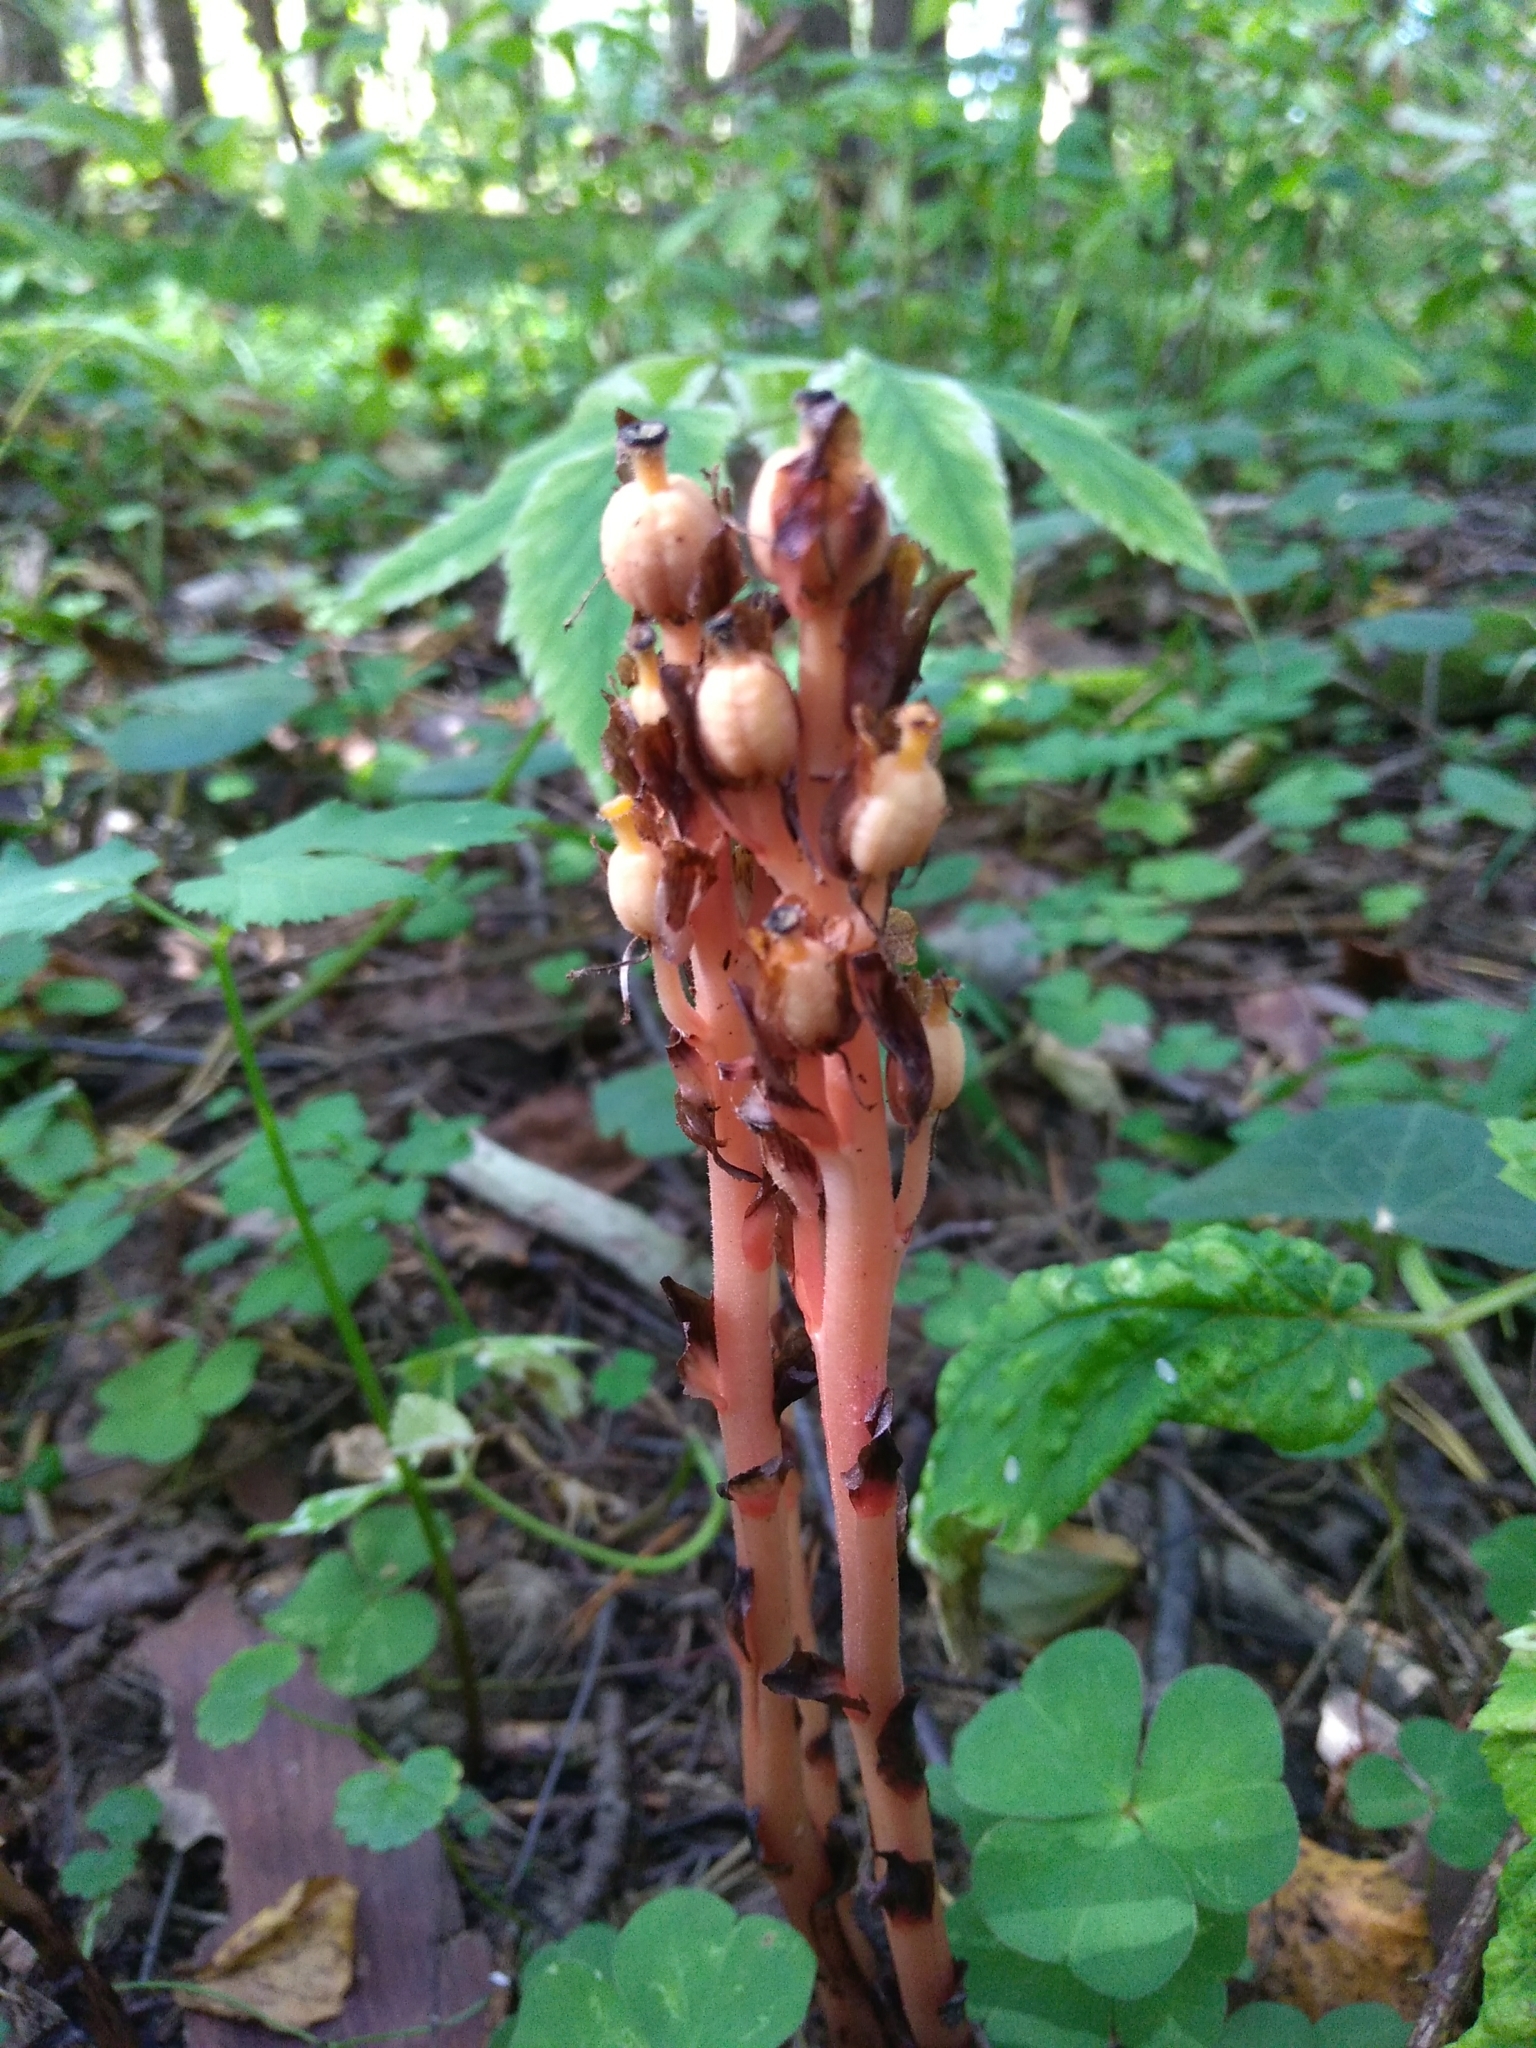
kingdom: Plantae
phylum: Tracheophyta
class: Magnoliopsida
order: Ericales
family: Ericaceae
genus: Hypopitys
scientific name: Hypopitys monotropa
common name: Yellow bird's-nest
